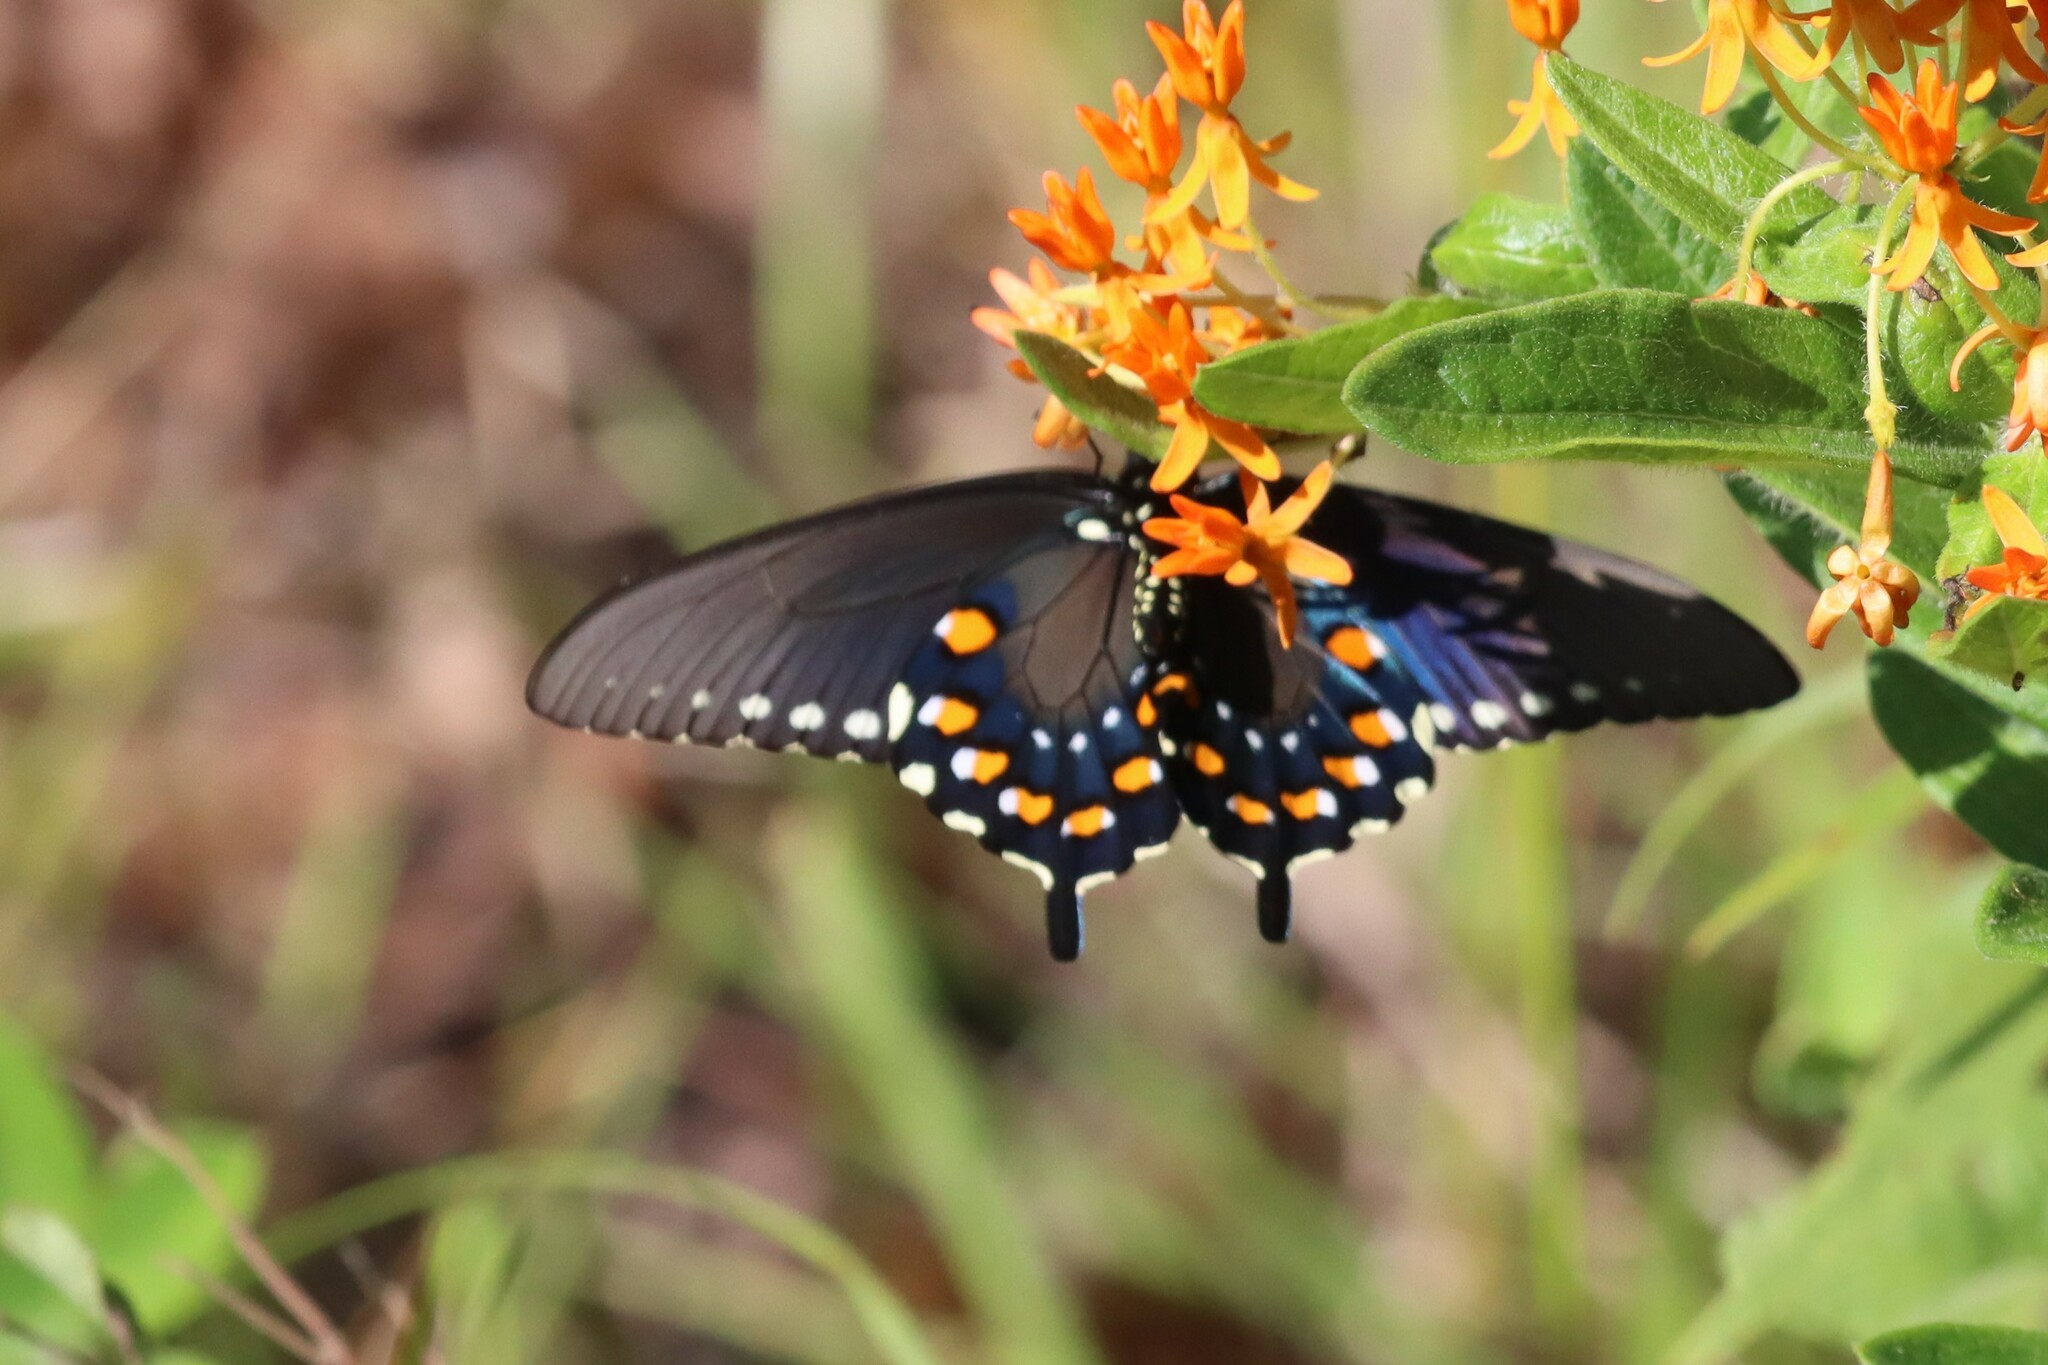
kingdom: Animalia
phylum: Arthropoda
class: Insecta
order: Lepidoptera
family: Papilionidae
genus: Battus
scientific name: Battus philenor
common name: Pipevine swallowtail
